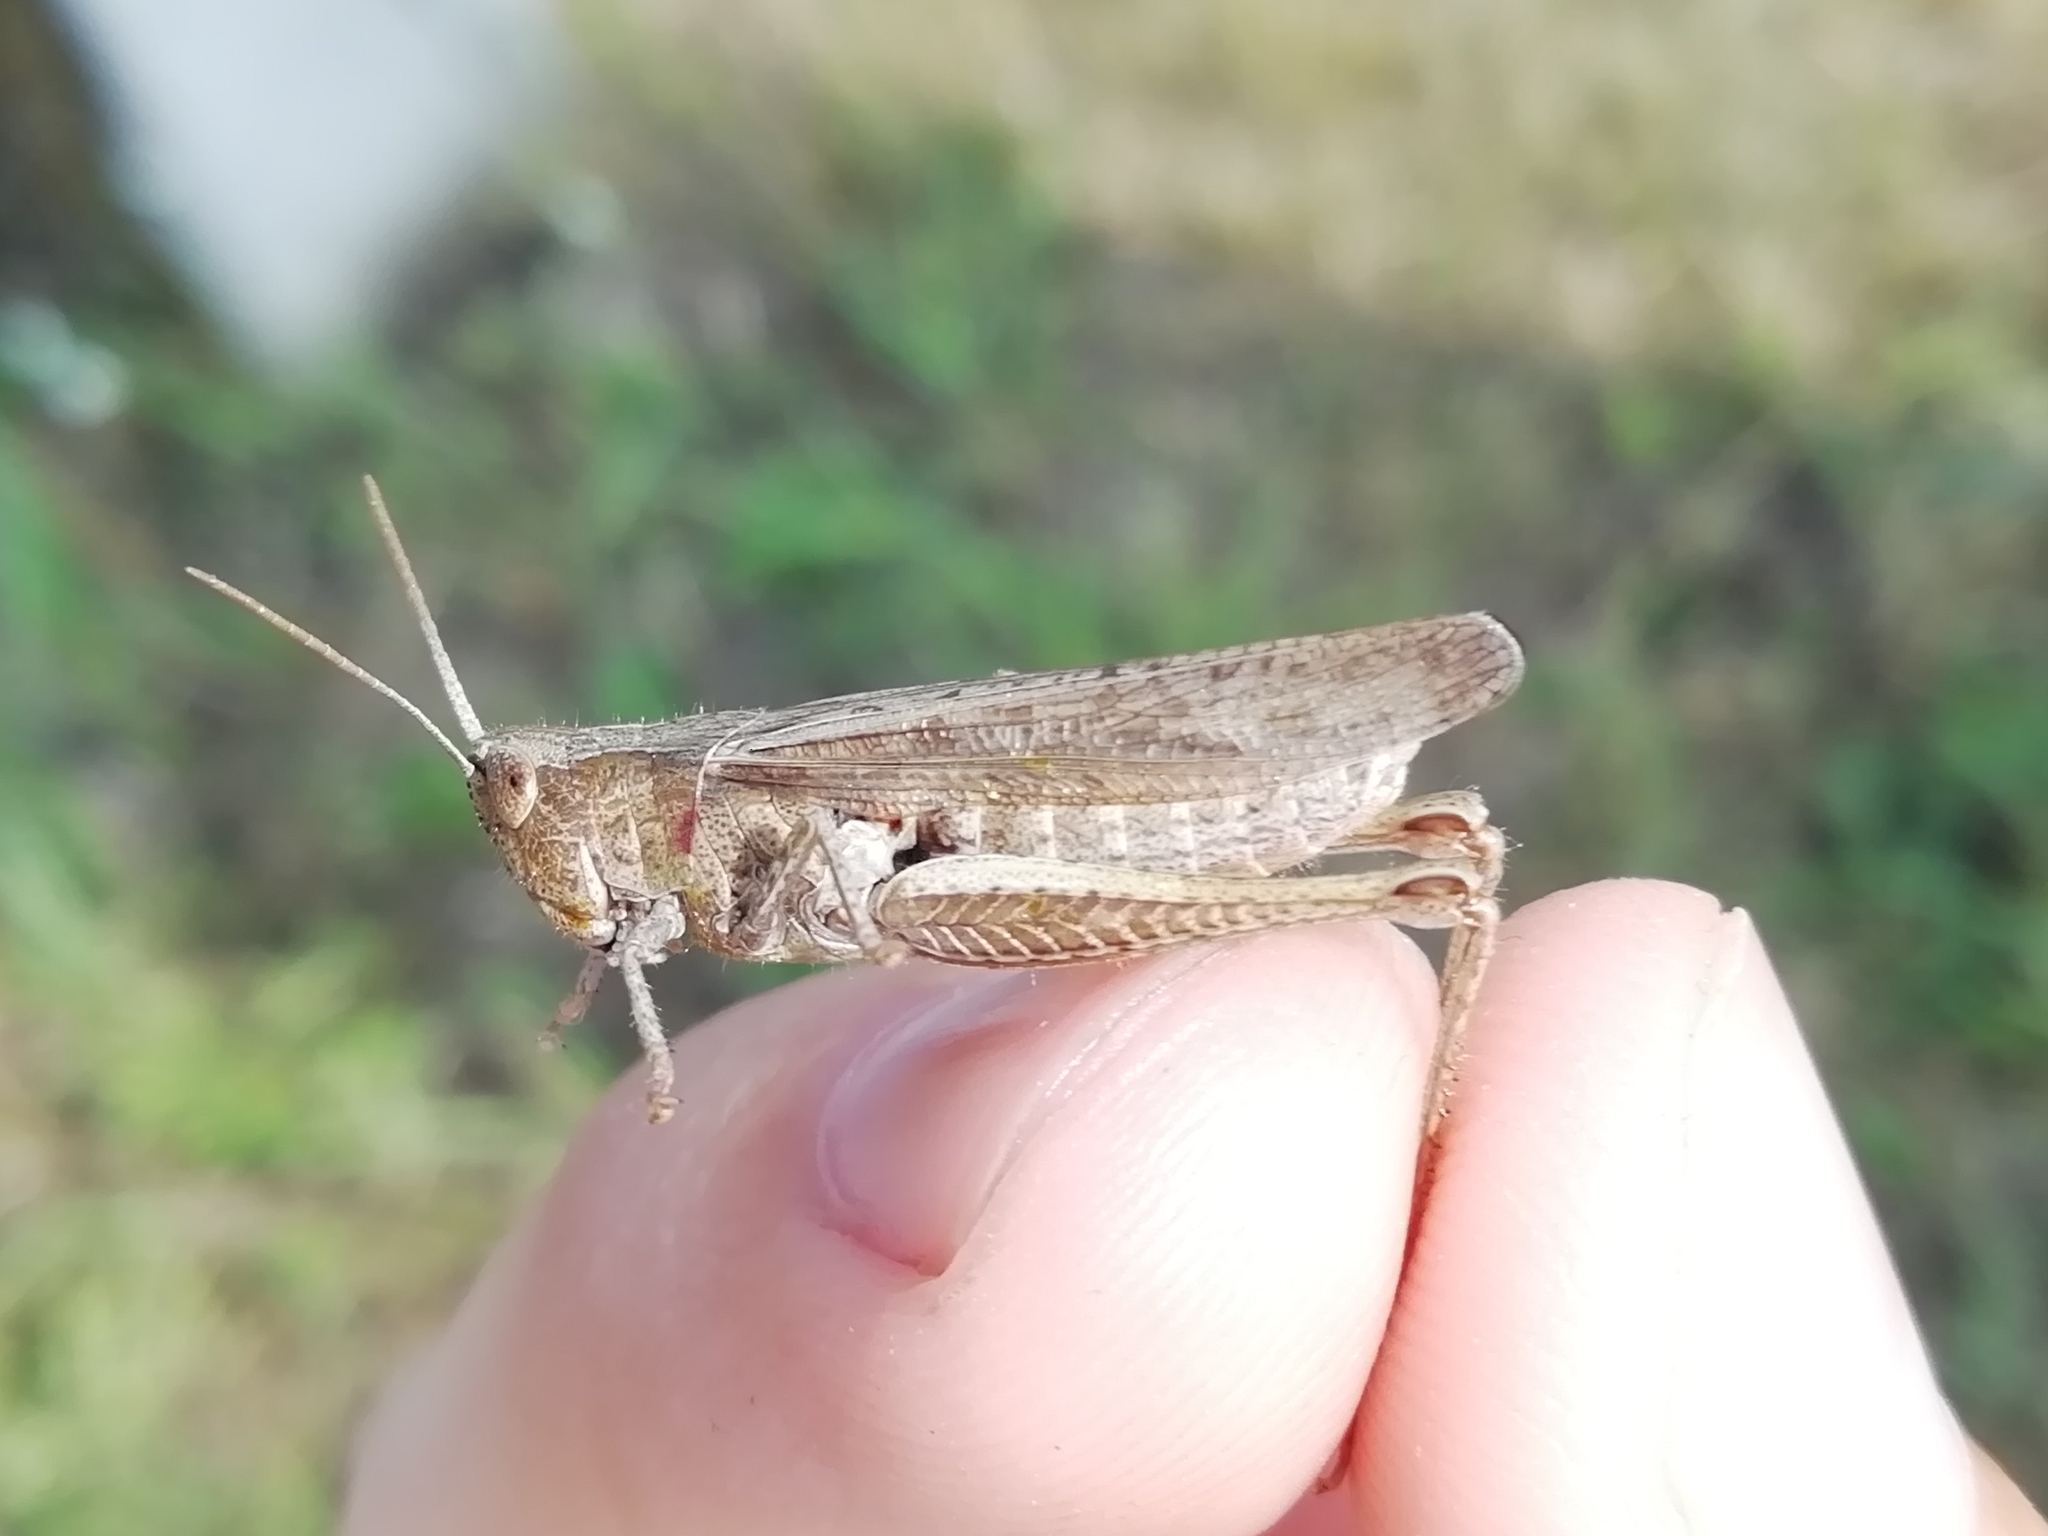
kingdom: Animalia
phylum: Arthropoda
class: Insecta
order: Orthoptera
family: Acrididae
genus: Chorthippus
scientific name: Chorthippus dorsatus
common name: Steppe grasshopper
